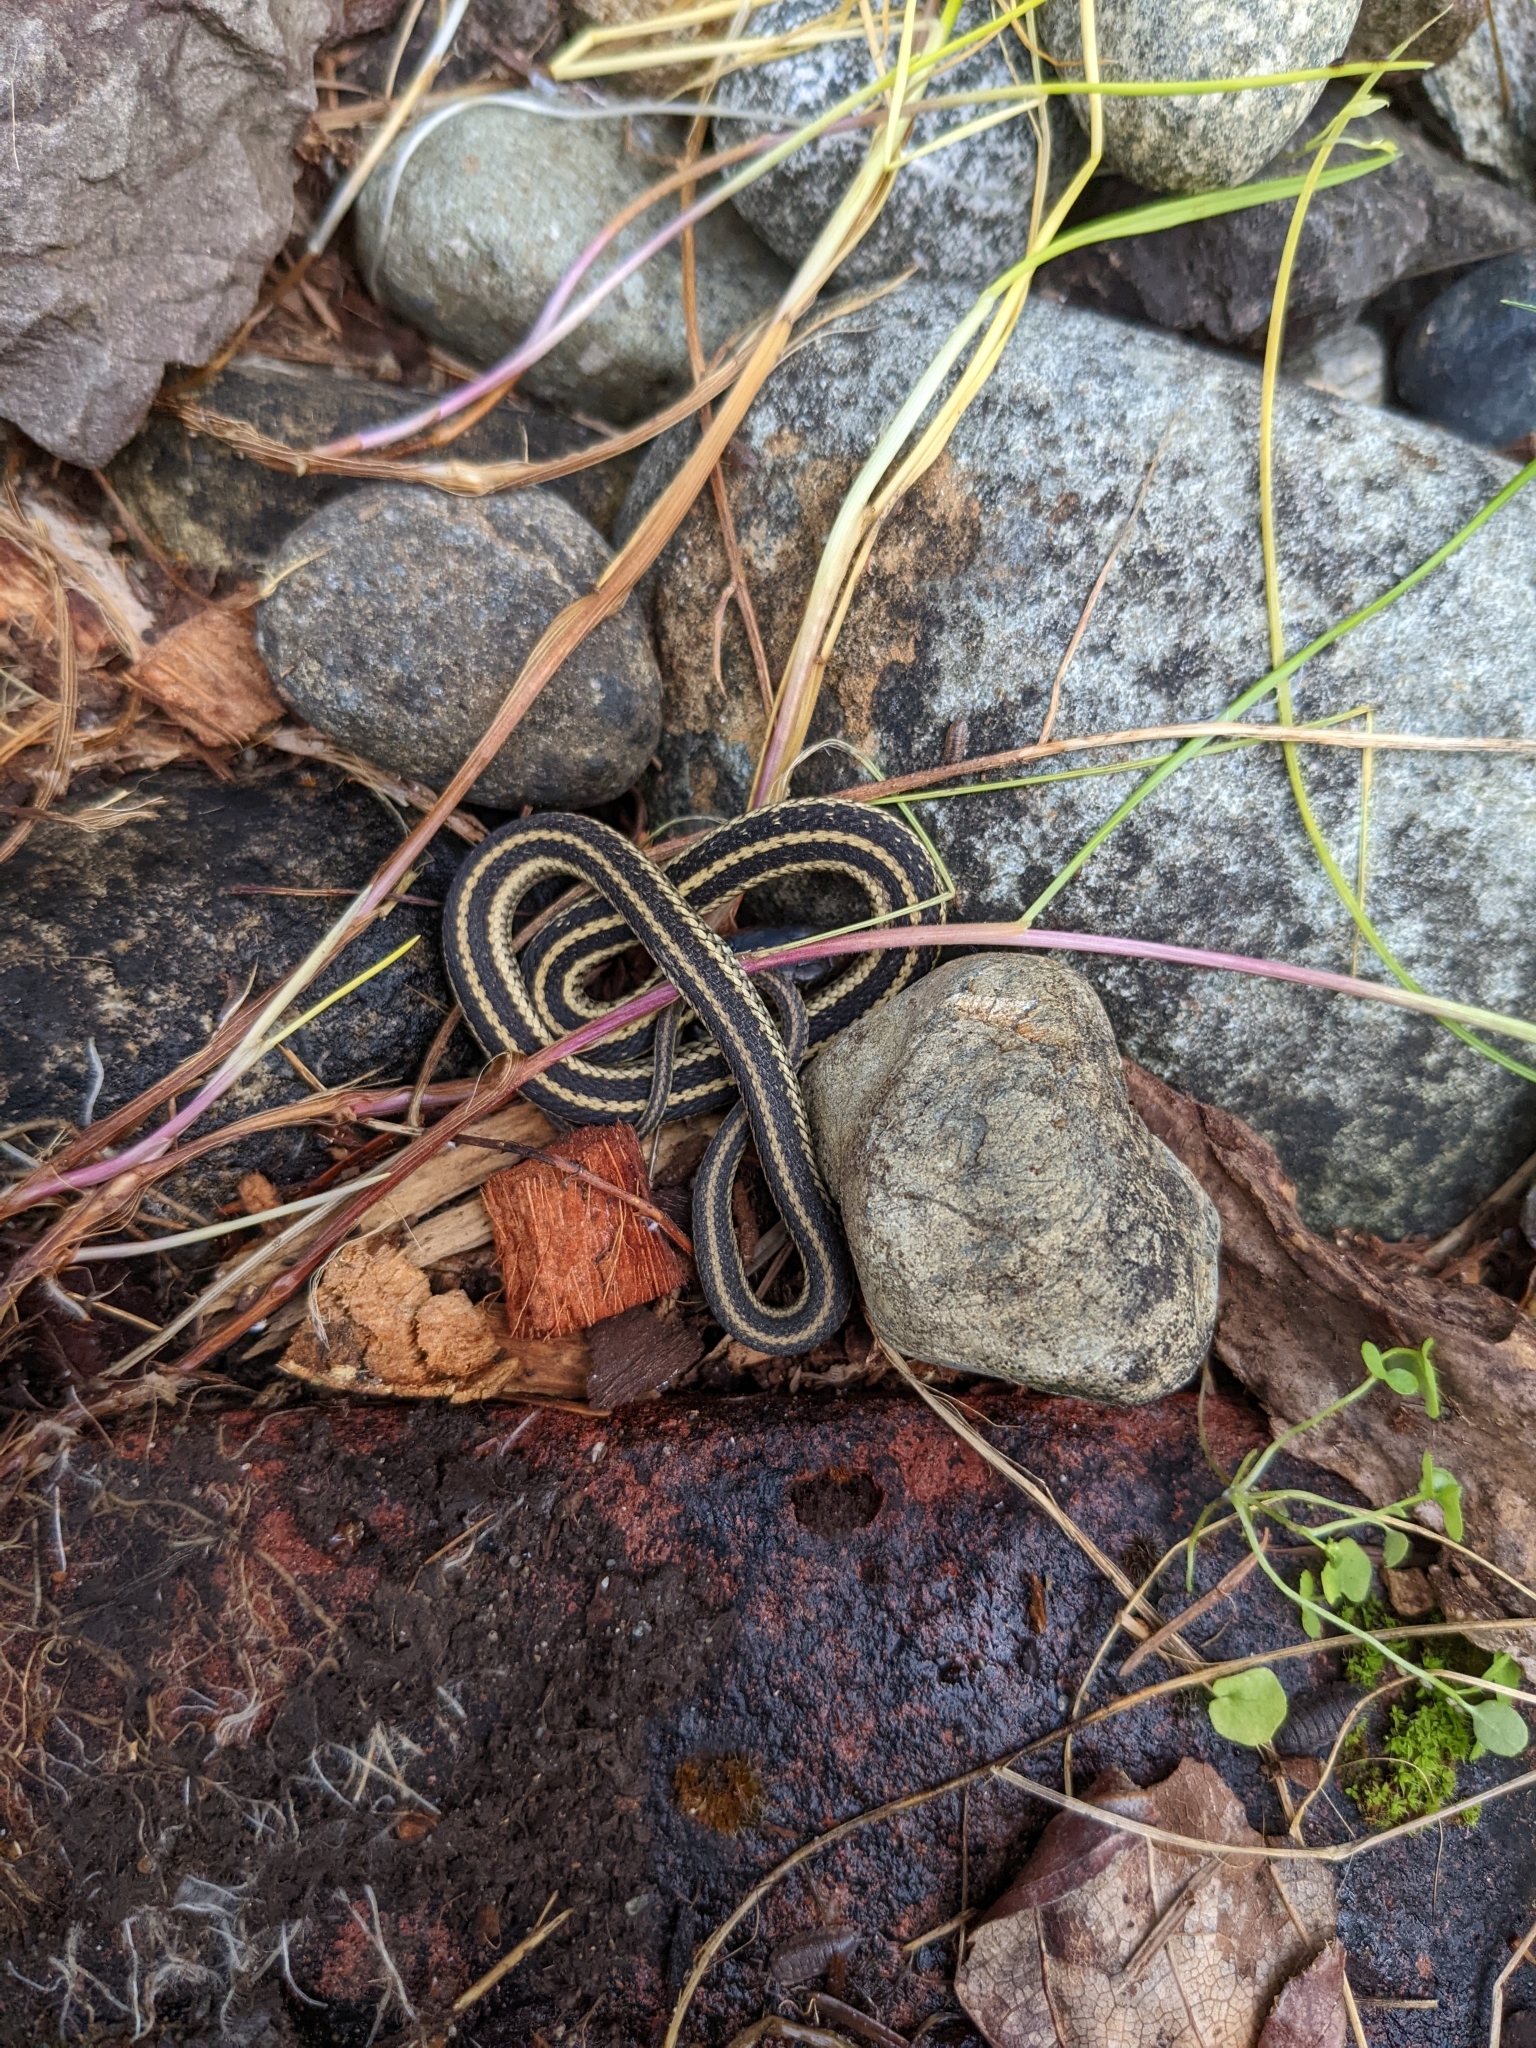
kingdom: Animalia
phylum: Chordata
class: Squamata
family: Colubridae
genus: Thamnophis
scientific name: Thamnophis sirtalis
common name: Common garter snake
